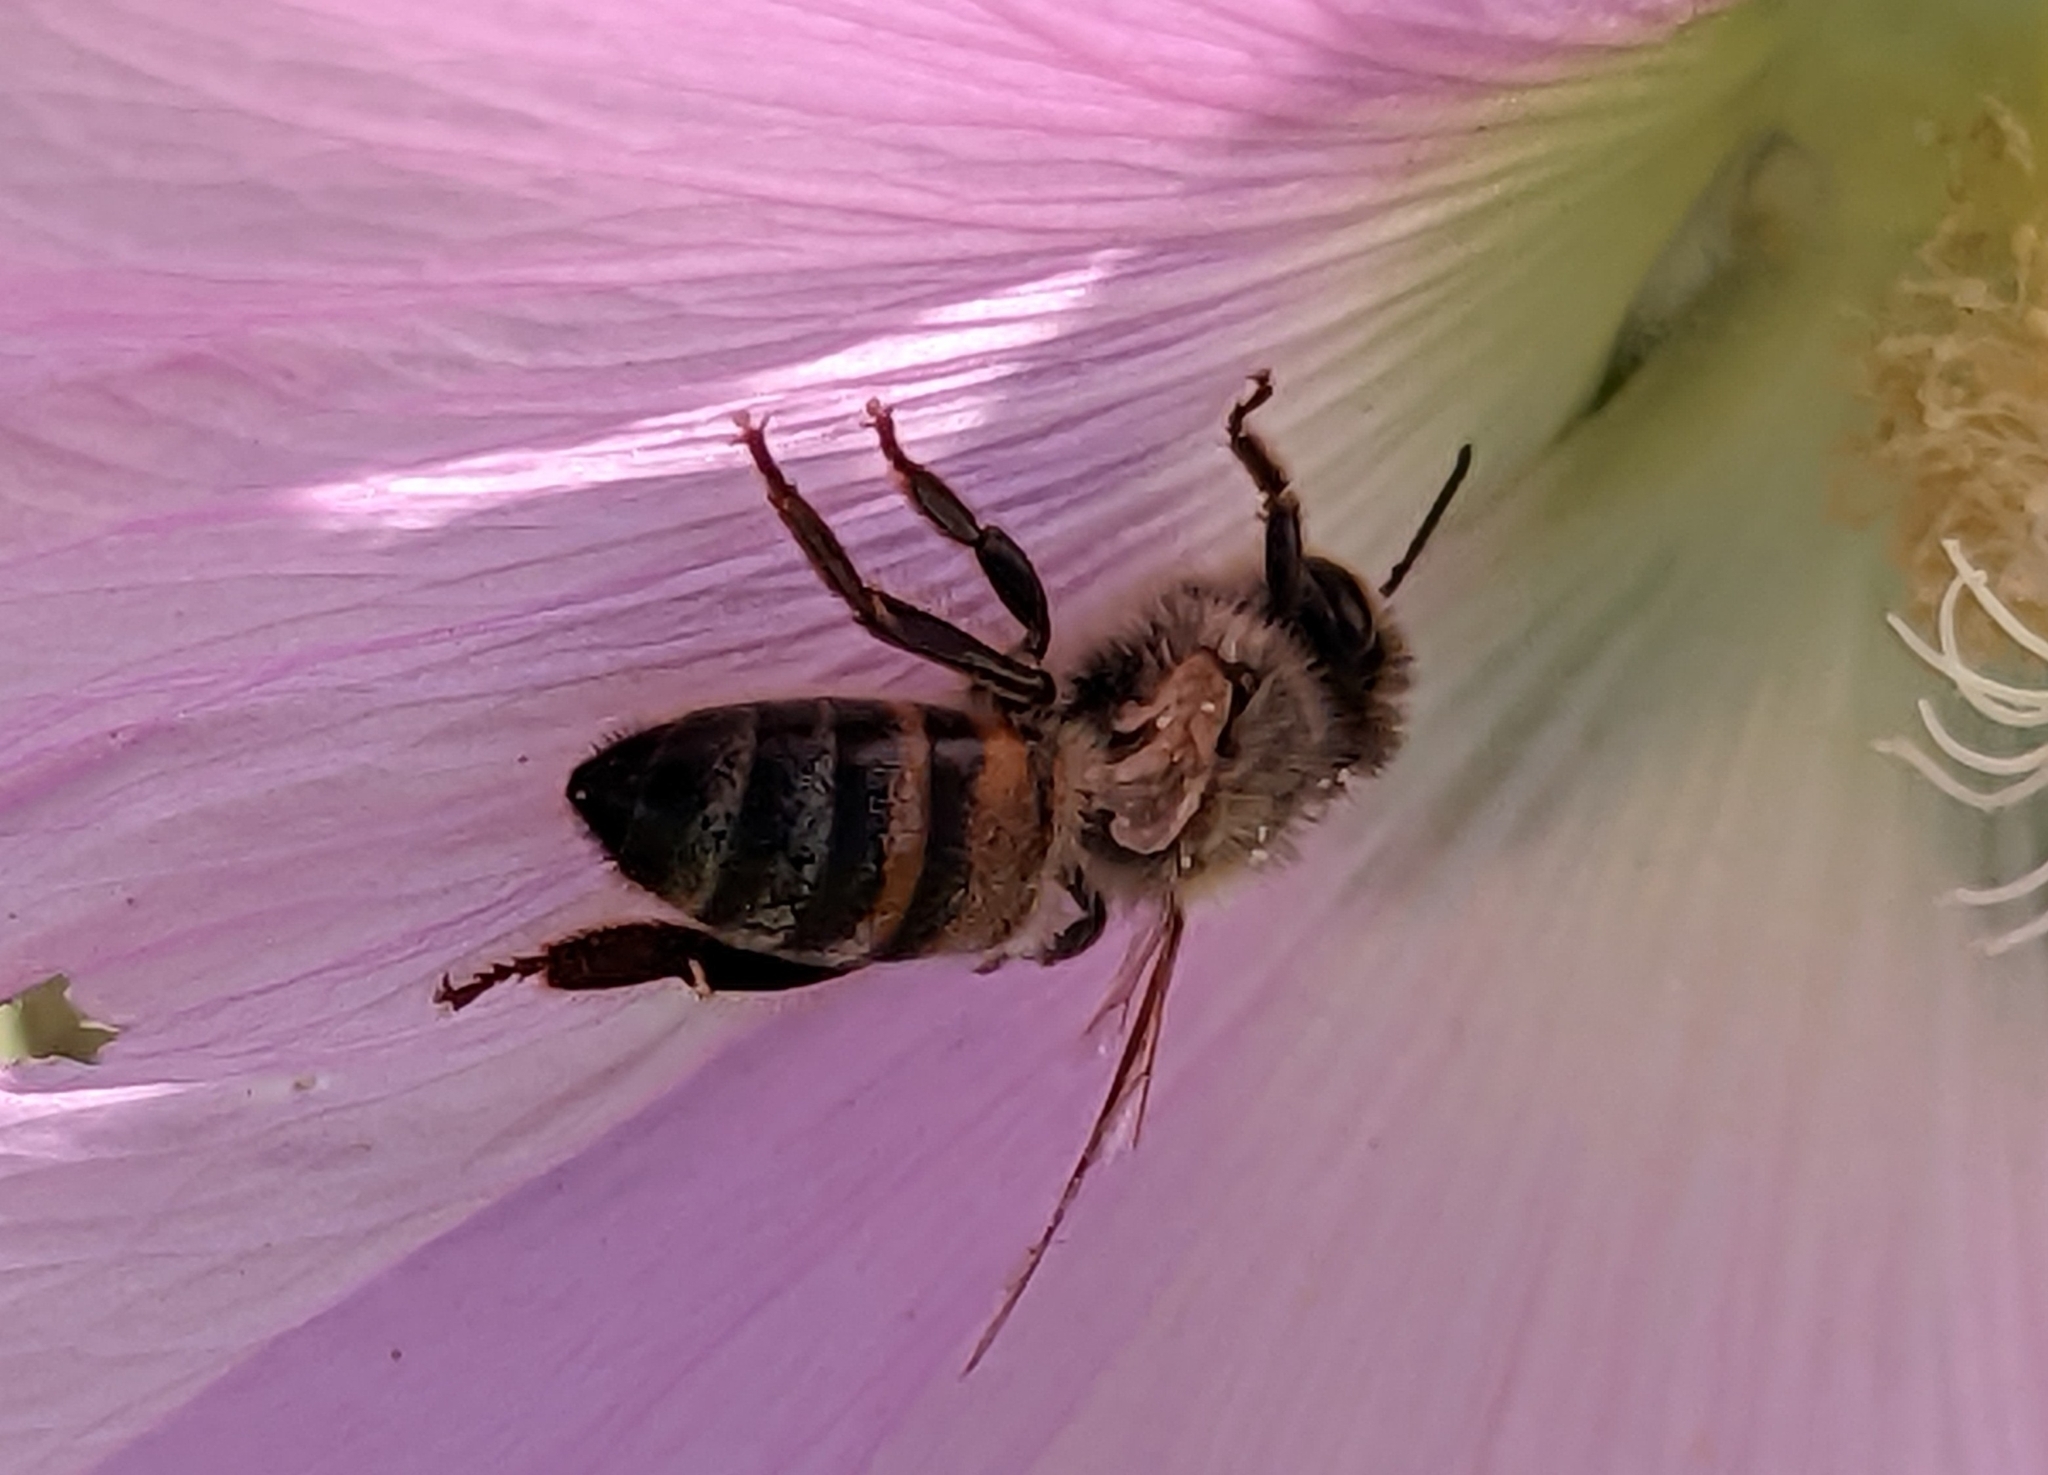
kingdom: Animalia
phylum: Arthropoda
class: Insecta
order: Hymenoptera
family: Apidae
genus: Apis
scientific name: Apis mellifera
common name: Honey bee
